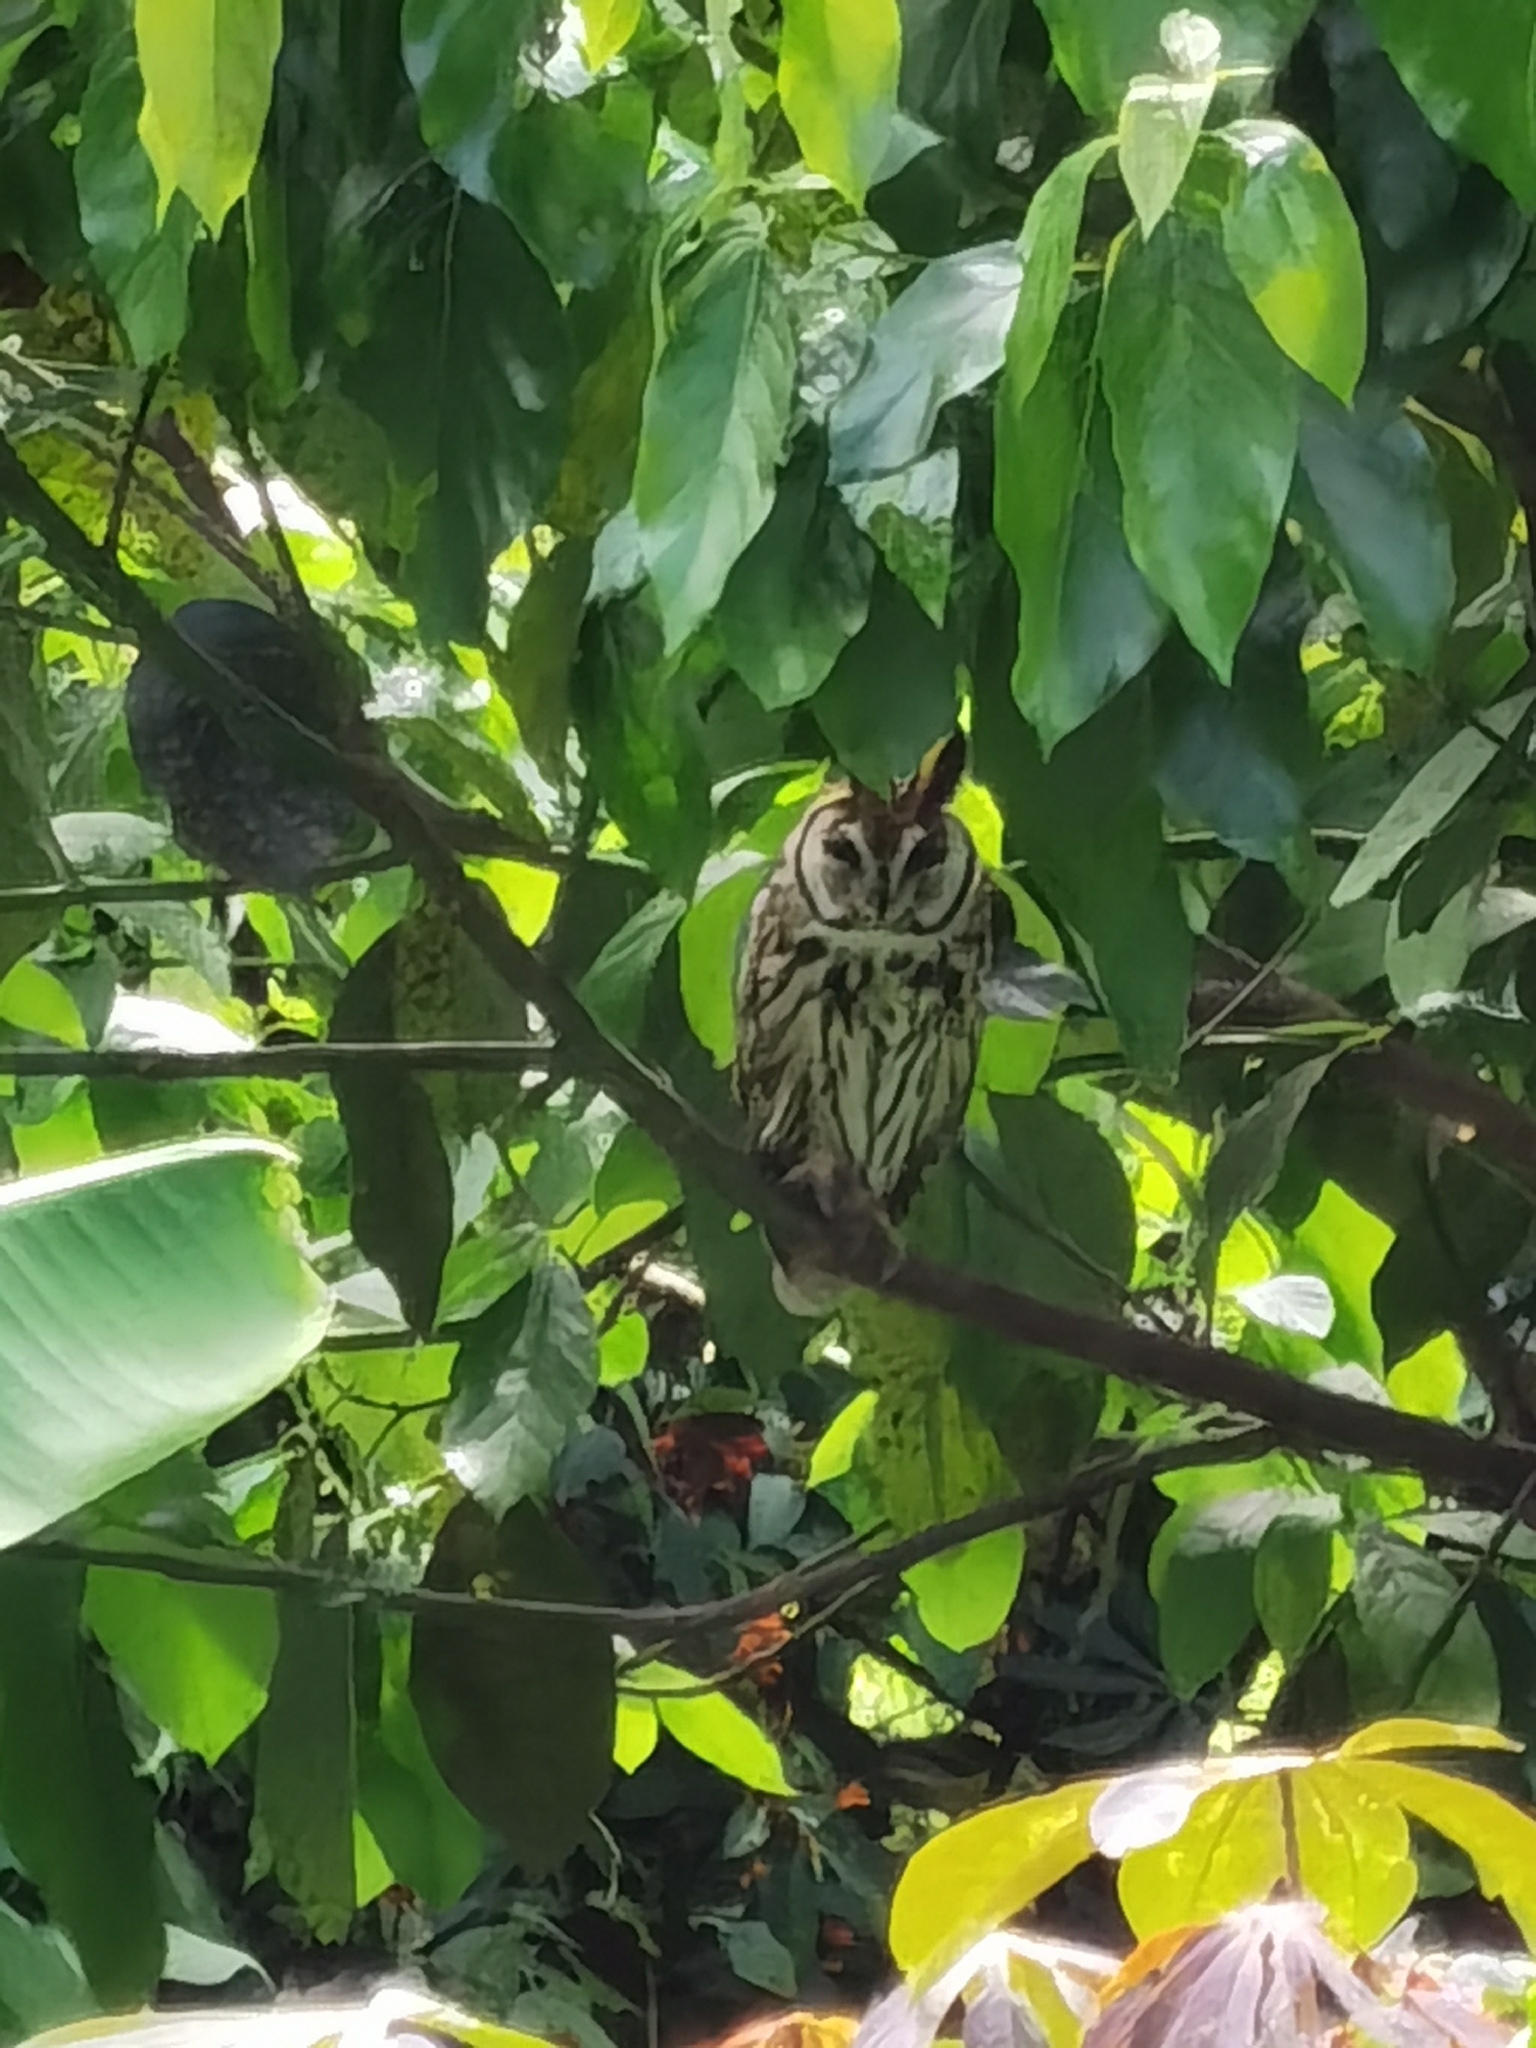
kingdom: Animalia
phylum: Chordata
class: Aves
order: Strigiformes
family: Strigidae
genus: Pseudoscops
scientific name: Pseudoscops clamator
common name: Striped owl
